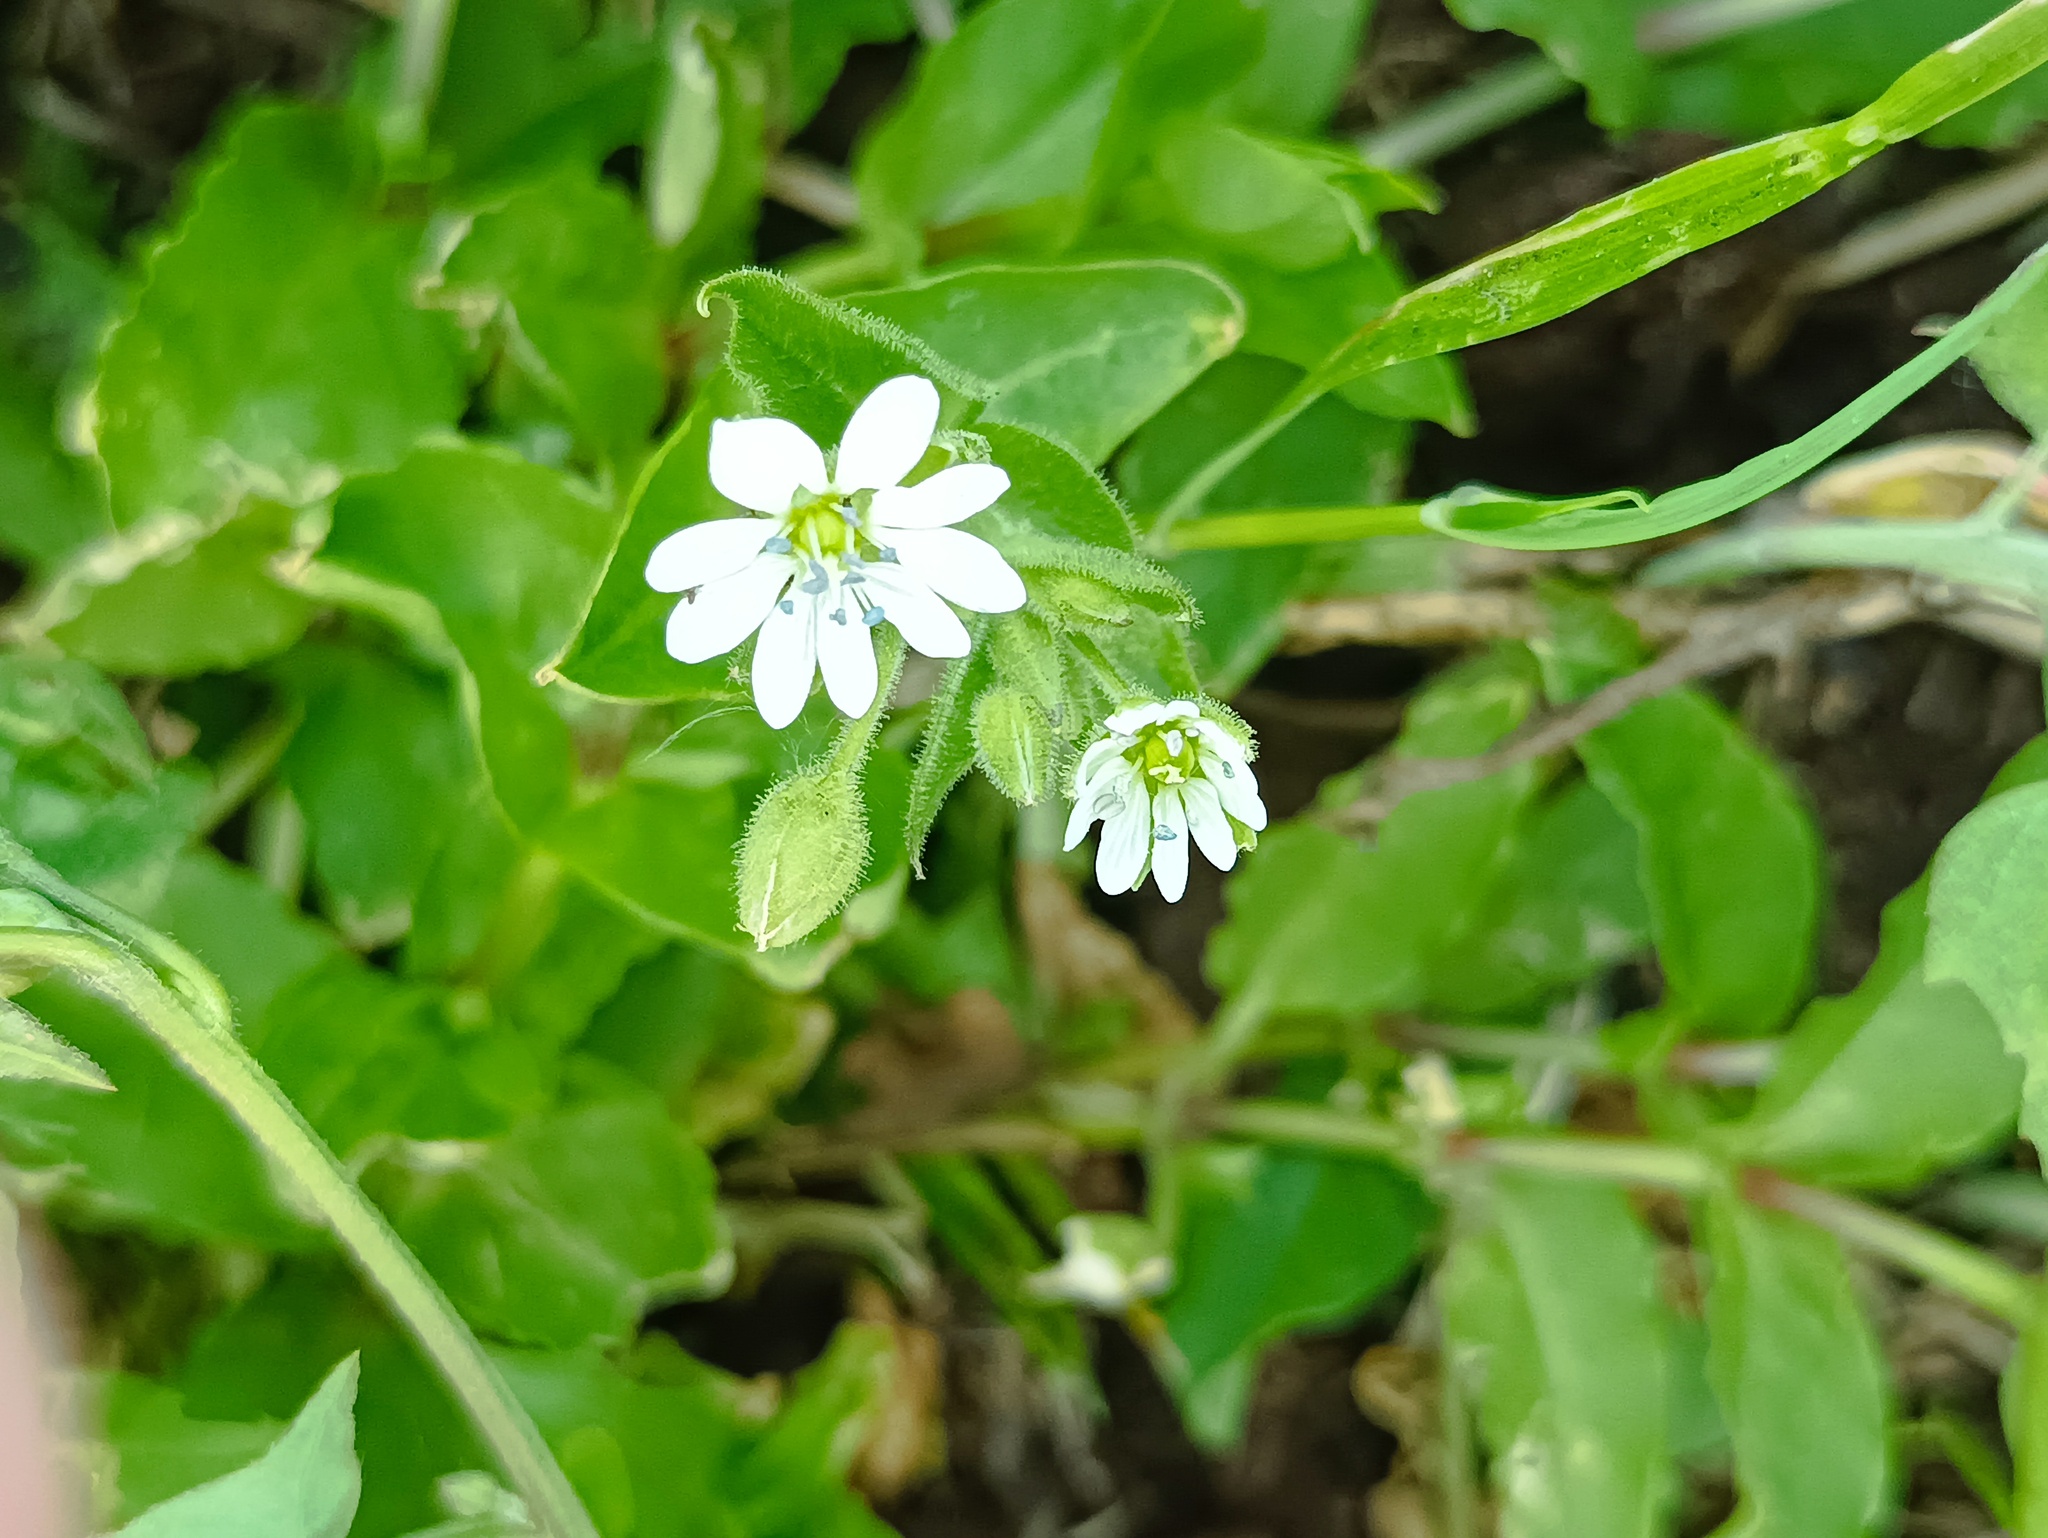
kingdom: Plantae
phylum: Tracheophyta
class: Magnoliopsida
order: Caryophyllales
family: Caryophyllaceae
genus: Stellaria
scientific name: Stellaria aquatica
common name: Water chickweed
